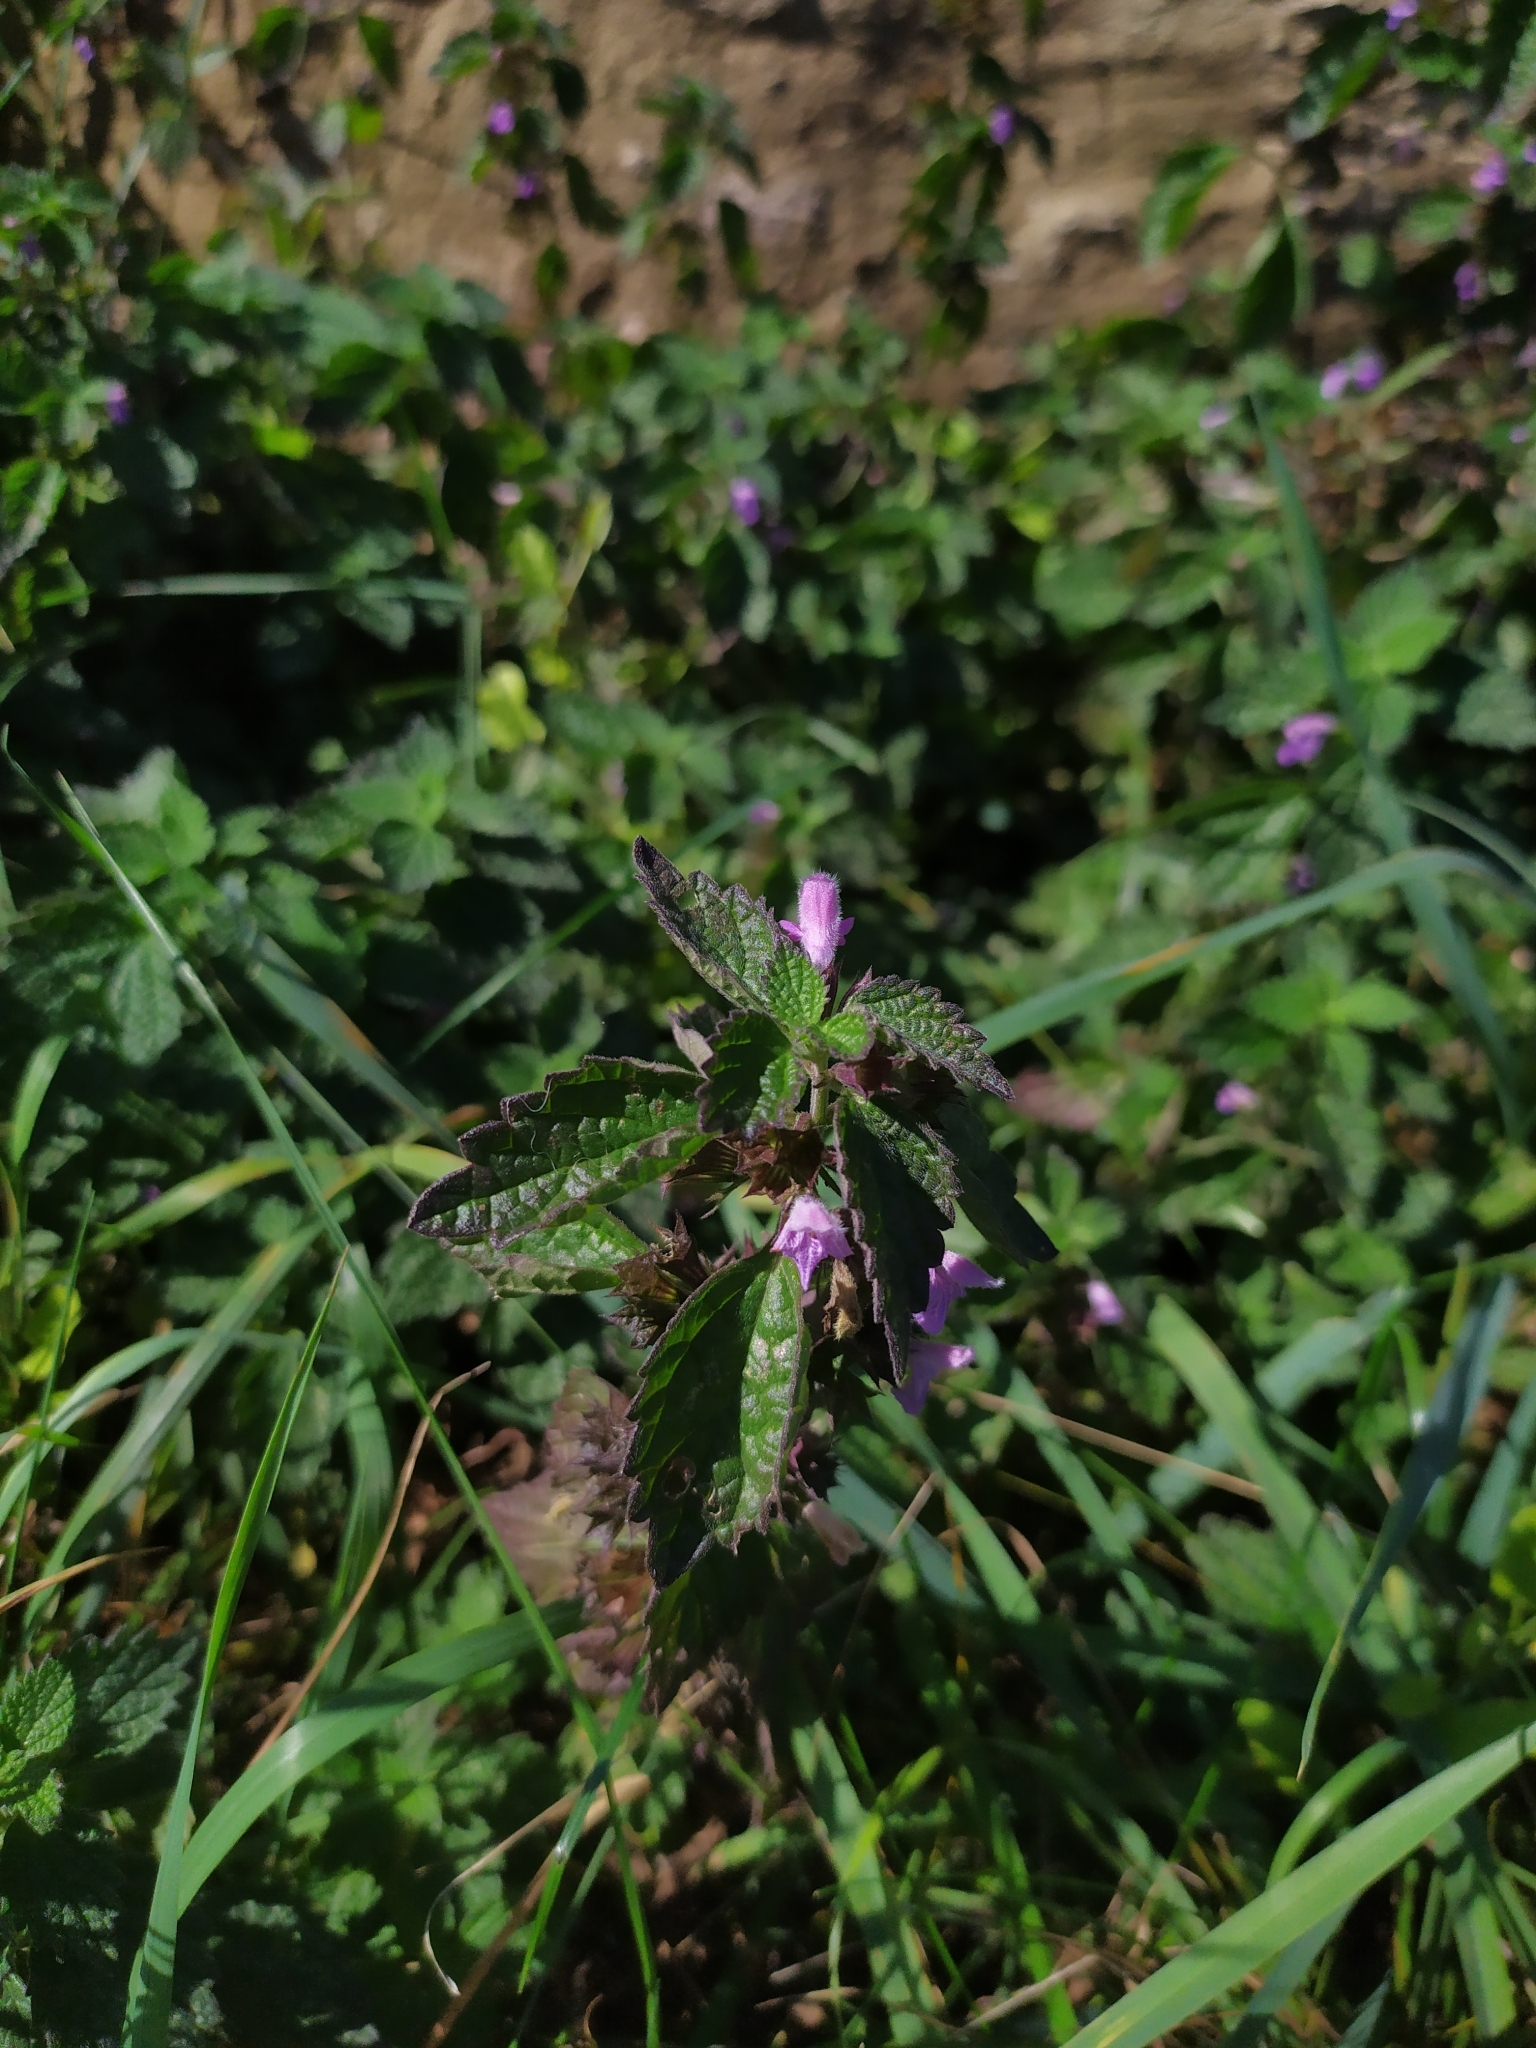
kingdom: Plantae
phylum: Tracheophyta
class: Magnoliopsida
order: Lamiales
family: Lamiaceae
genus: Ballota
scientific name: Ballota nigra
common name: Black horehound
